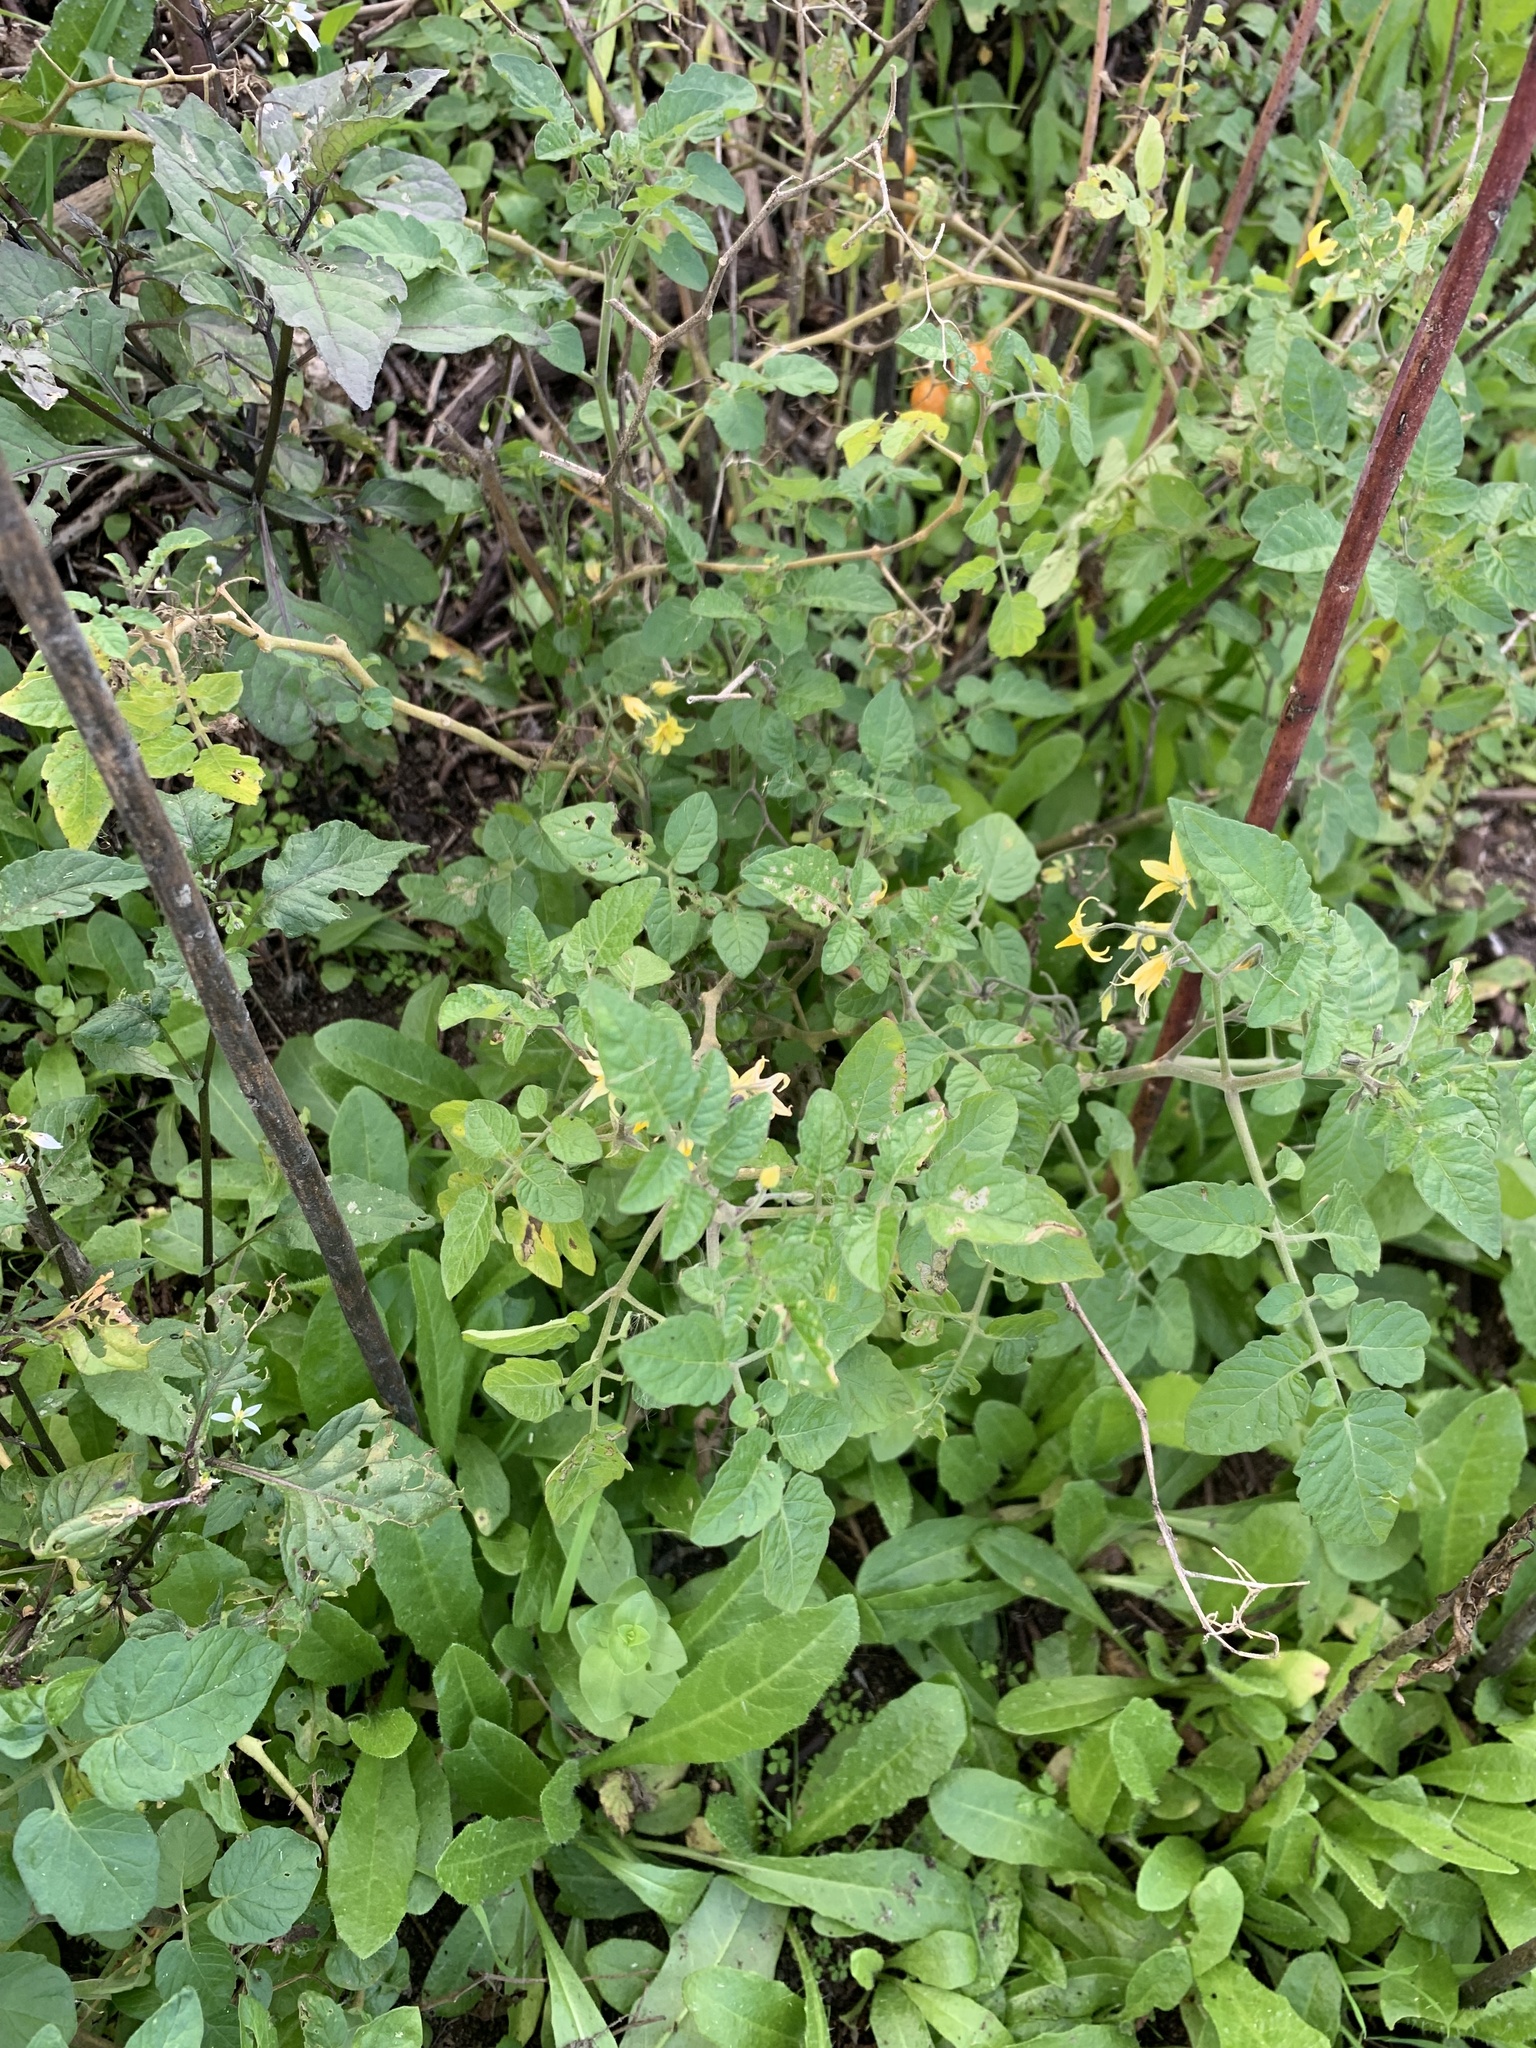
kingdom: Plantae
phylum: Tracheophyta
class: Magnoliopsida
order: Solanales
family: Solanaceae
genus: Solanum
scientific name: Solanum lycopersicum
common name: Garden tomato
